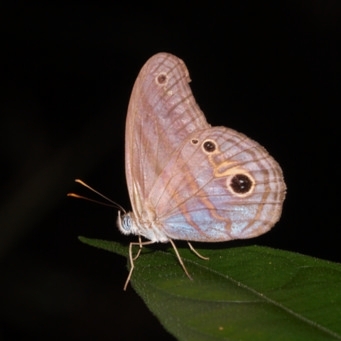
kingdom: Animalia
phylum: Arthropoda
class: Insecta
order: Lepidoptera
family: Nymphalidae
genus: Chloreuptychia
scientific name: Chloreuptychia amethysta
